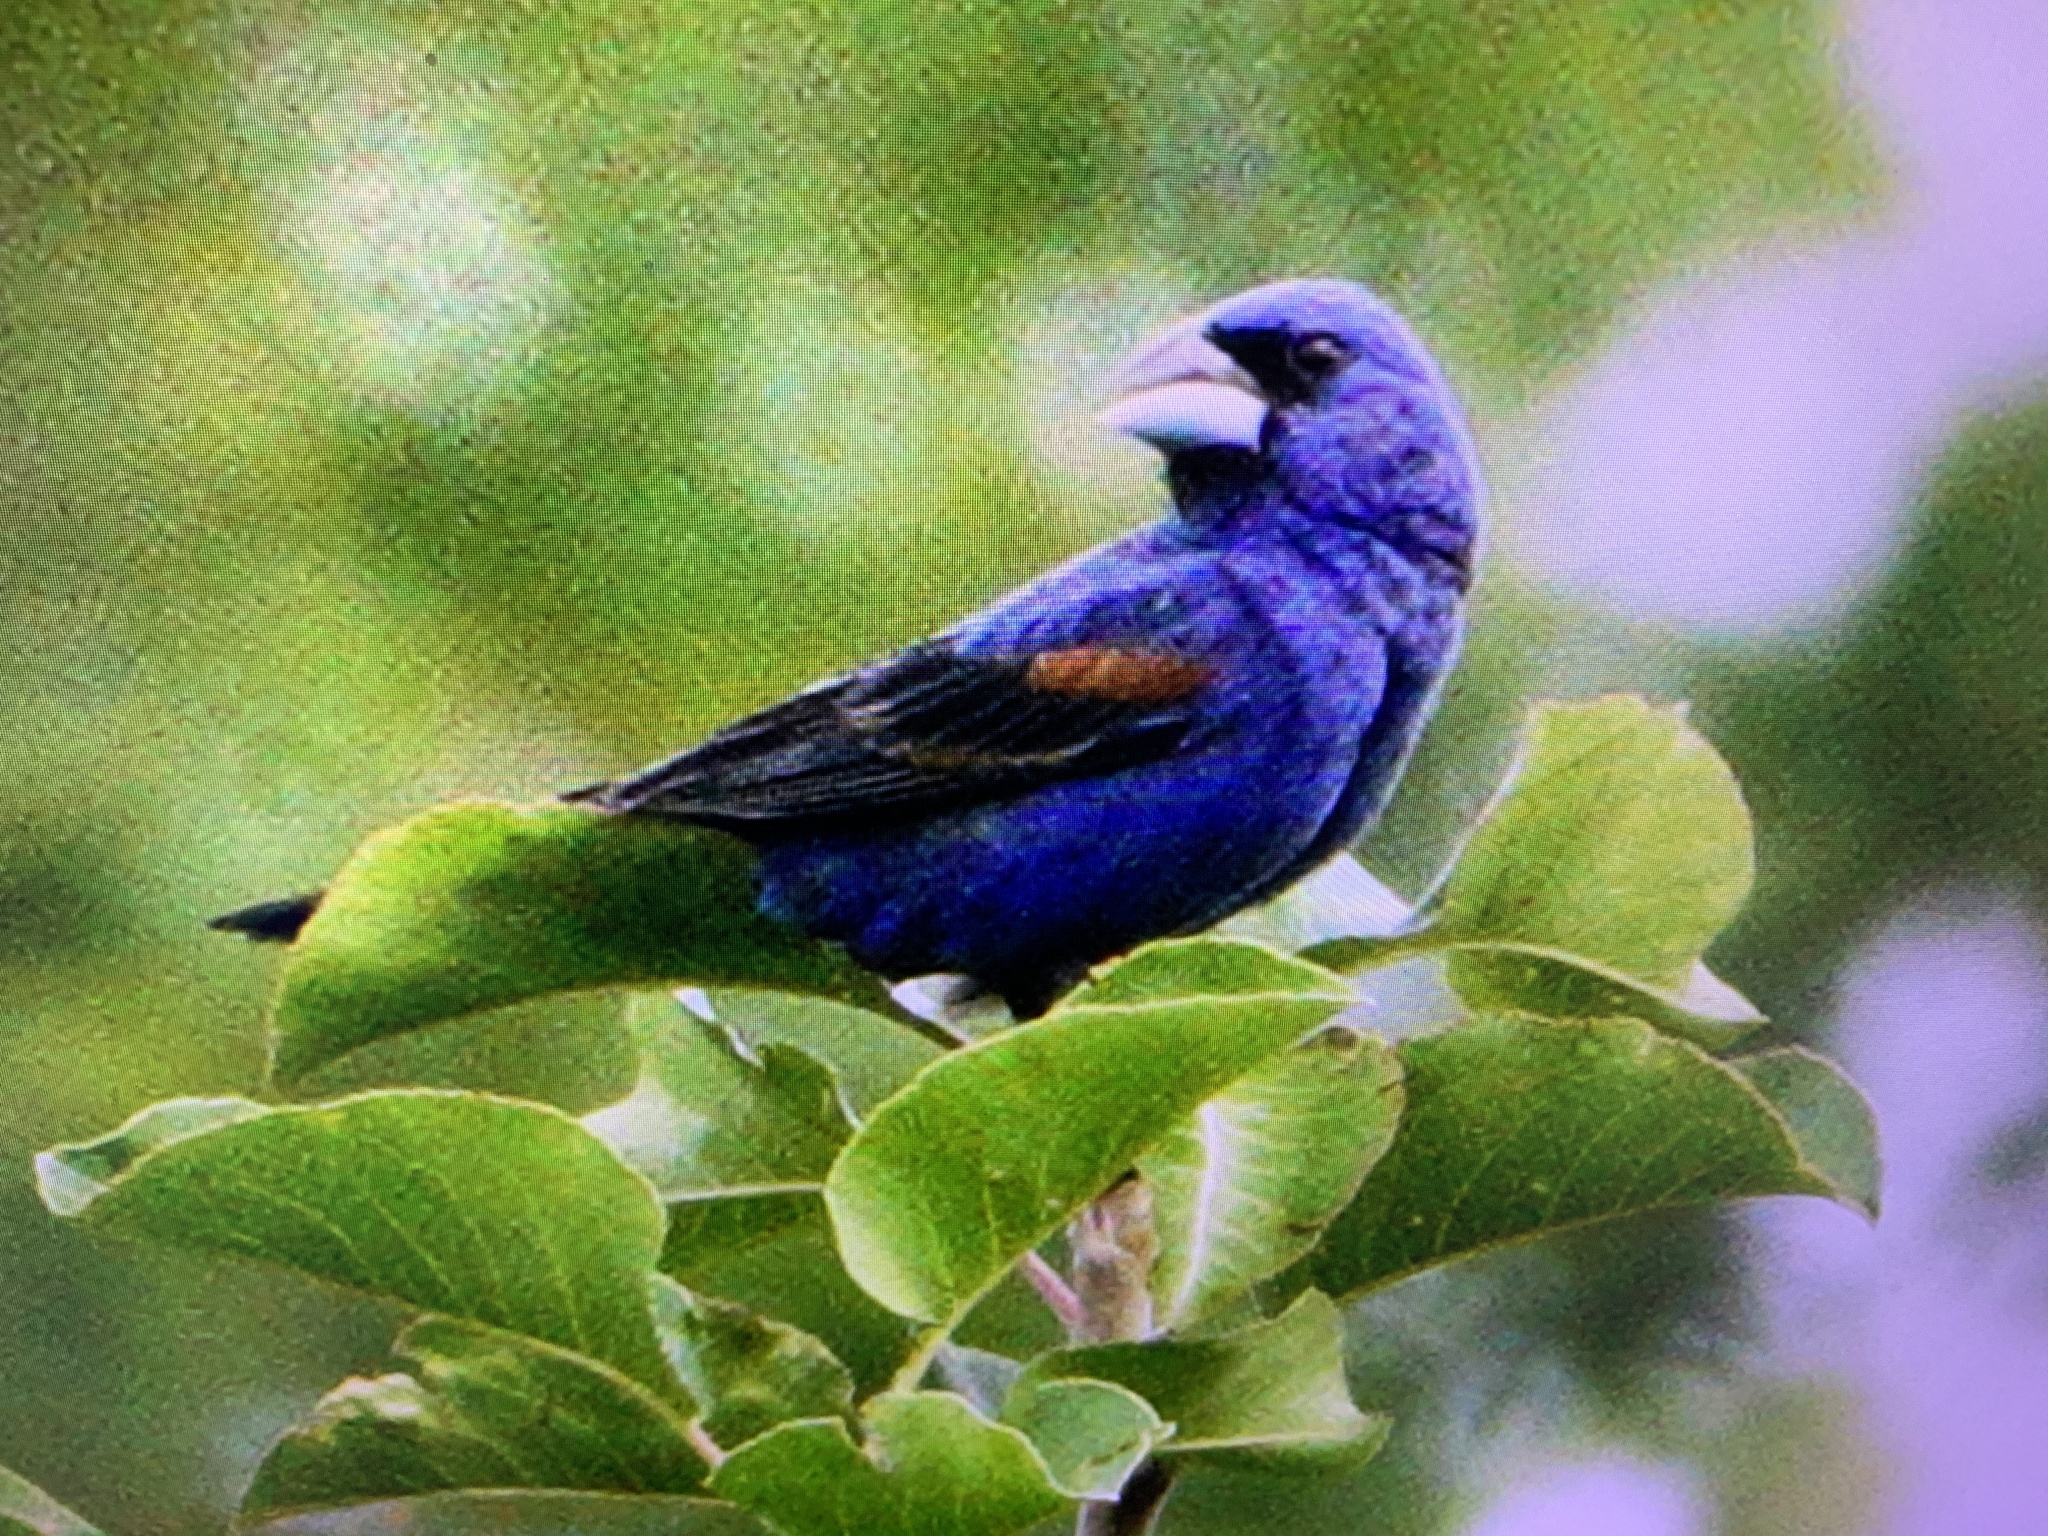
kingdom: Animalia
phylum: Chordata
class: Aves
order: Passeriformes
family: Cardinalidae
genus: Passerina
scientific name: Passerina caerulea
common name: Blue grosbeak
